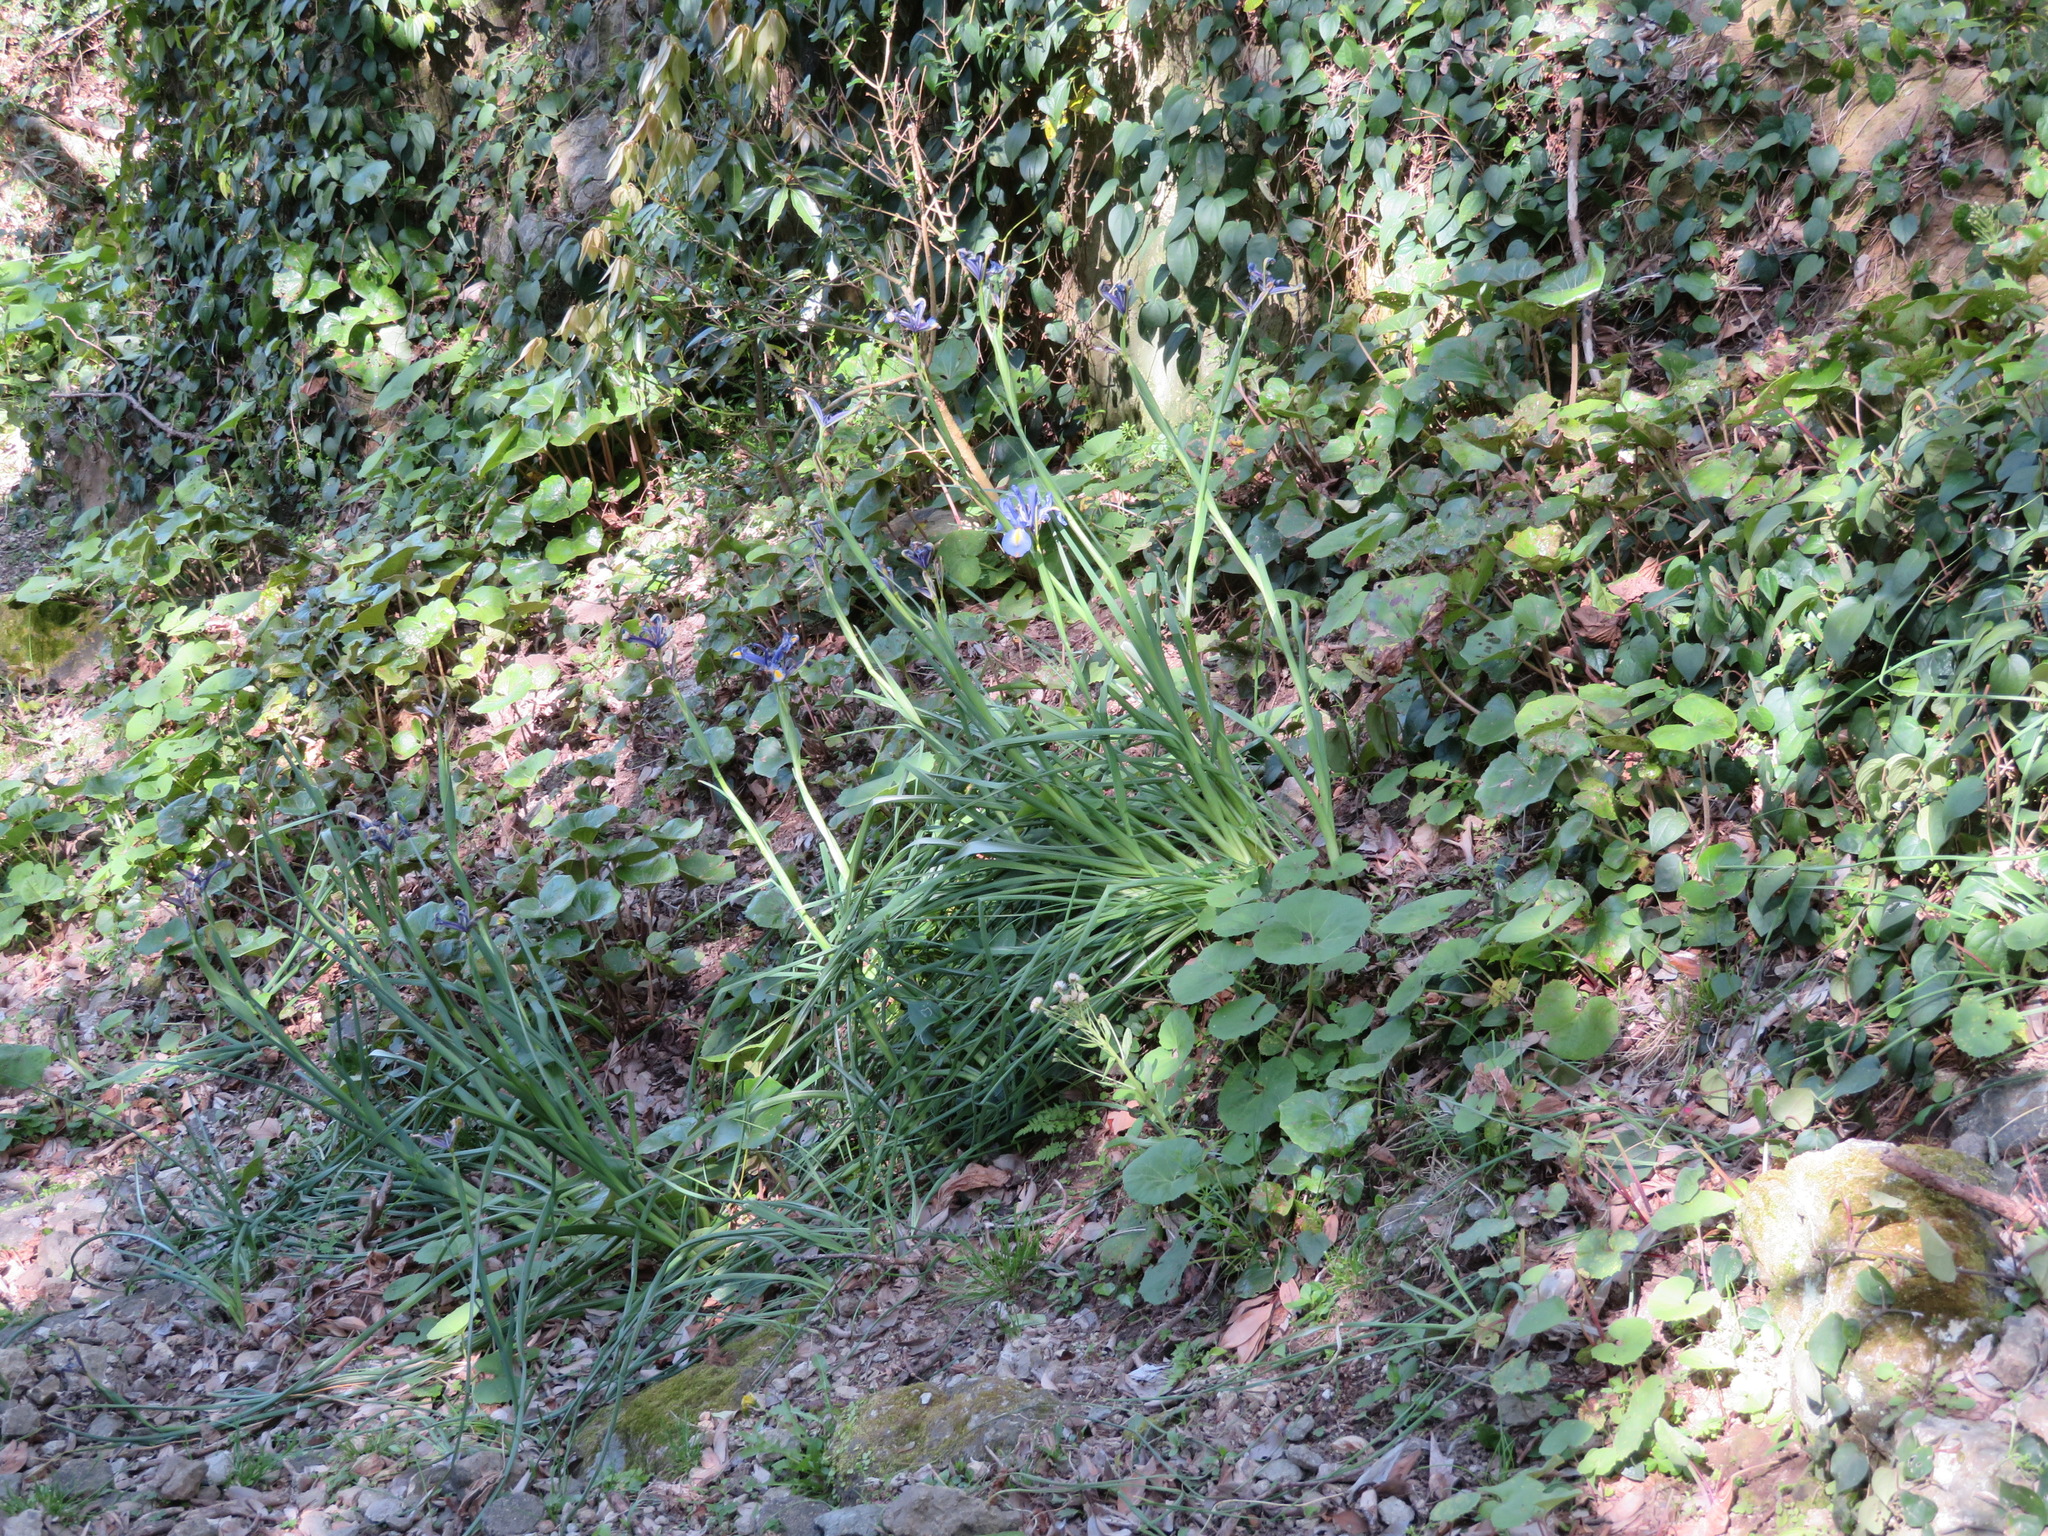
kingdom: Plantae
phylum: Tracheophyta
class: Liliopsida
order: Asparagales
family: Iridaceae
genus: Iris
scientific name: Iris hollandica
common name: Dutch iris
